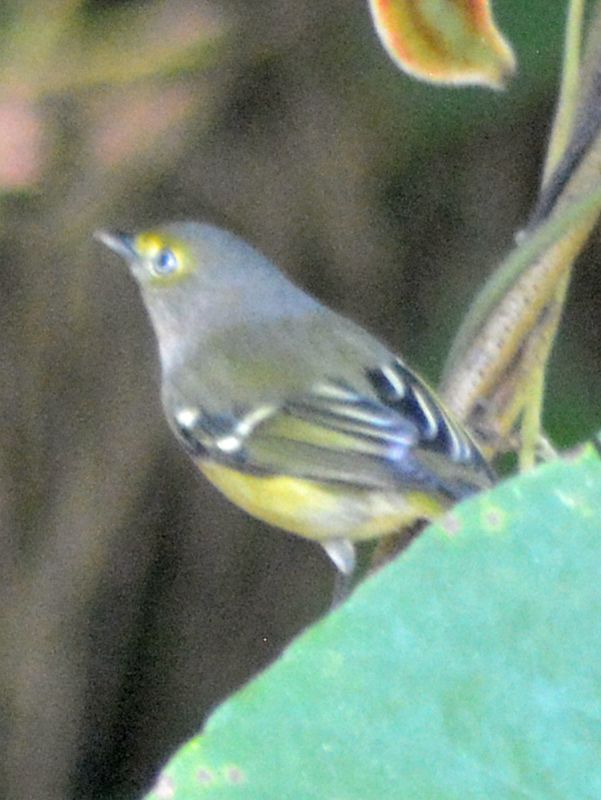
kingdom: Animalia
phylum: Chordata
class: Aves
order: Passeriformes
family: Vireonidae
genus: Vireo
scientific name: Vireo griseus
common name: White-eyed vireo
